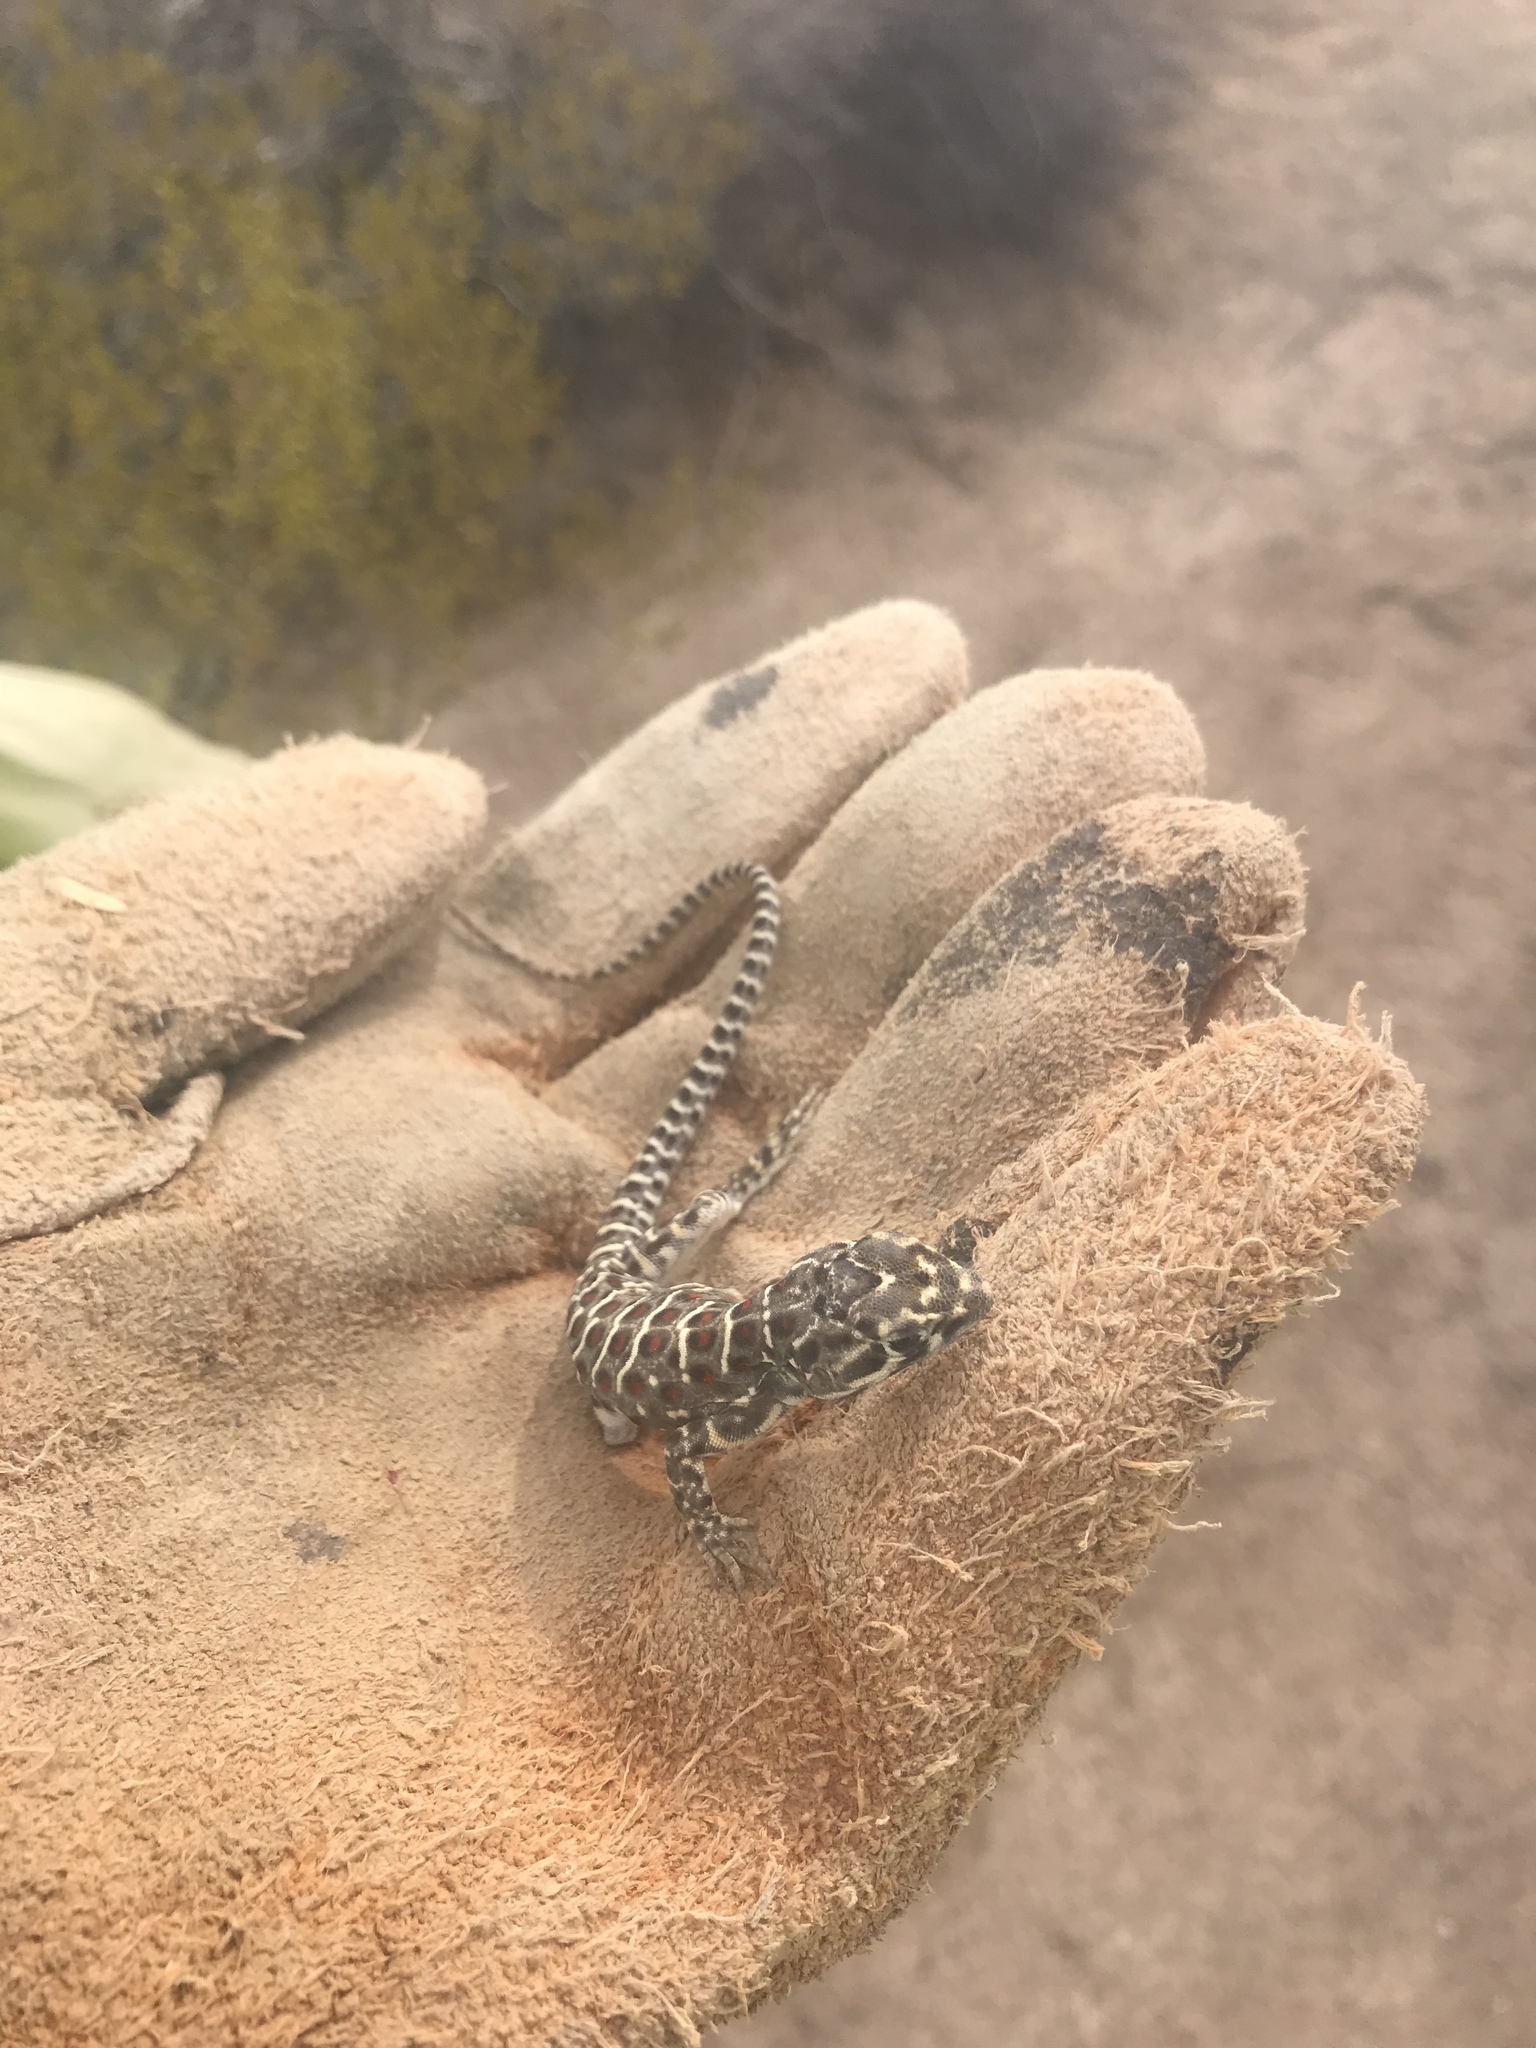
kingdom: Animalia
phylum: Chordata
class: Squamata
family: Crotaphytidae
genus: Gambelia
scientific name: Gambelia wislizenii
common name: Longnose leopard lizard
